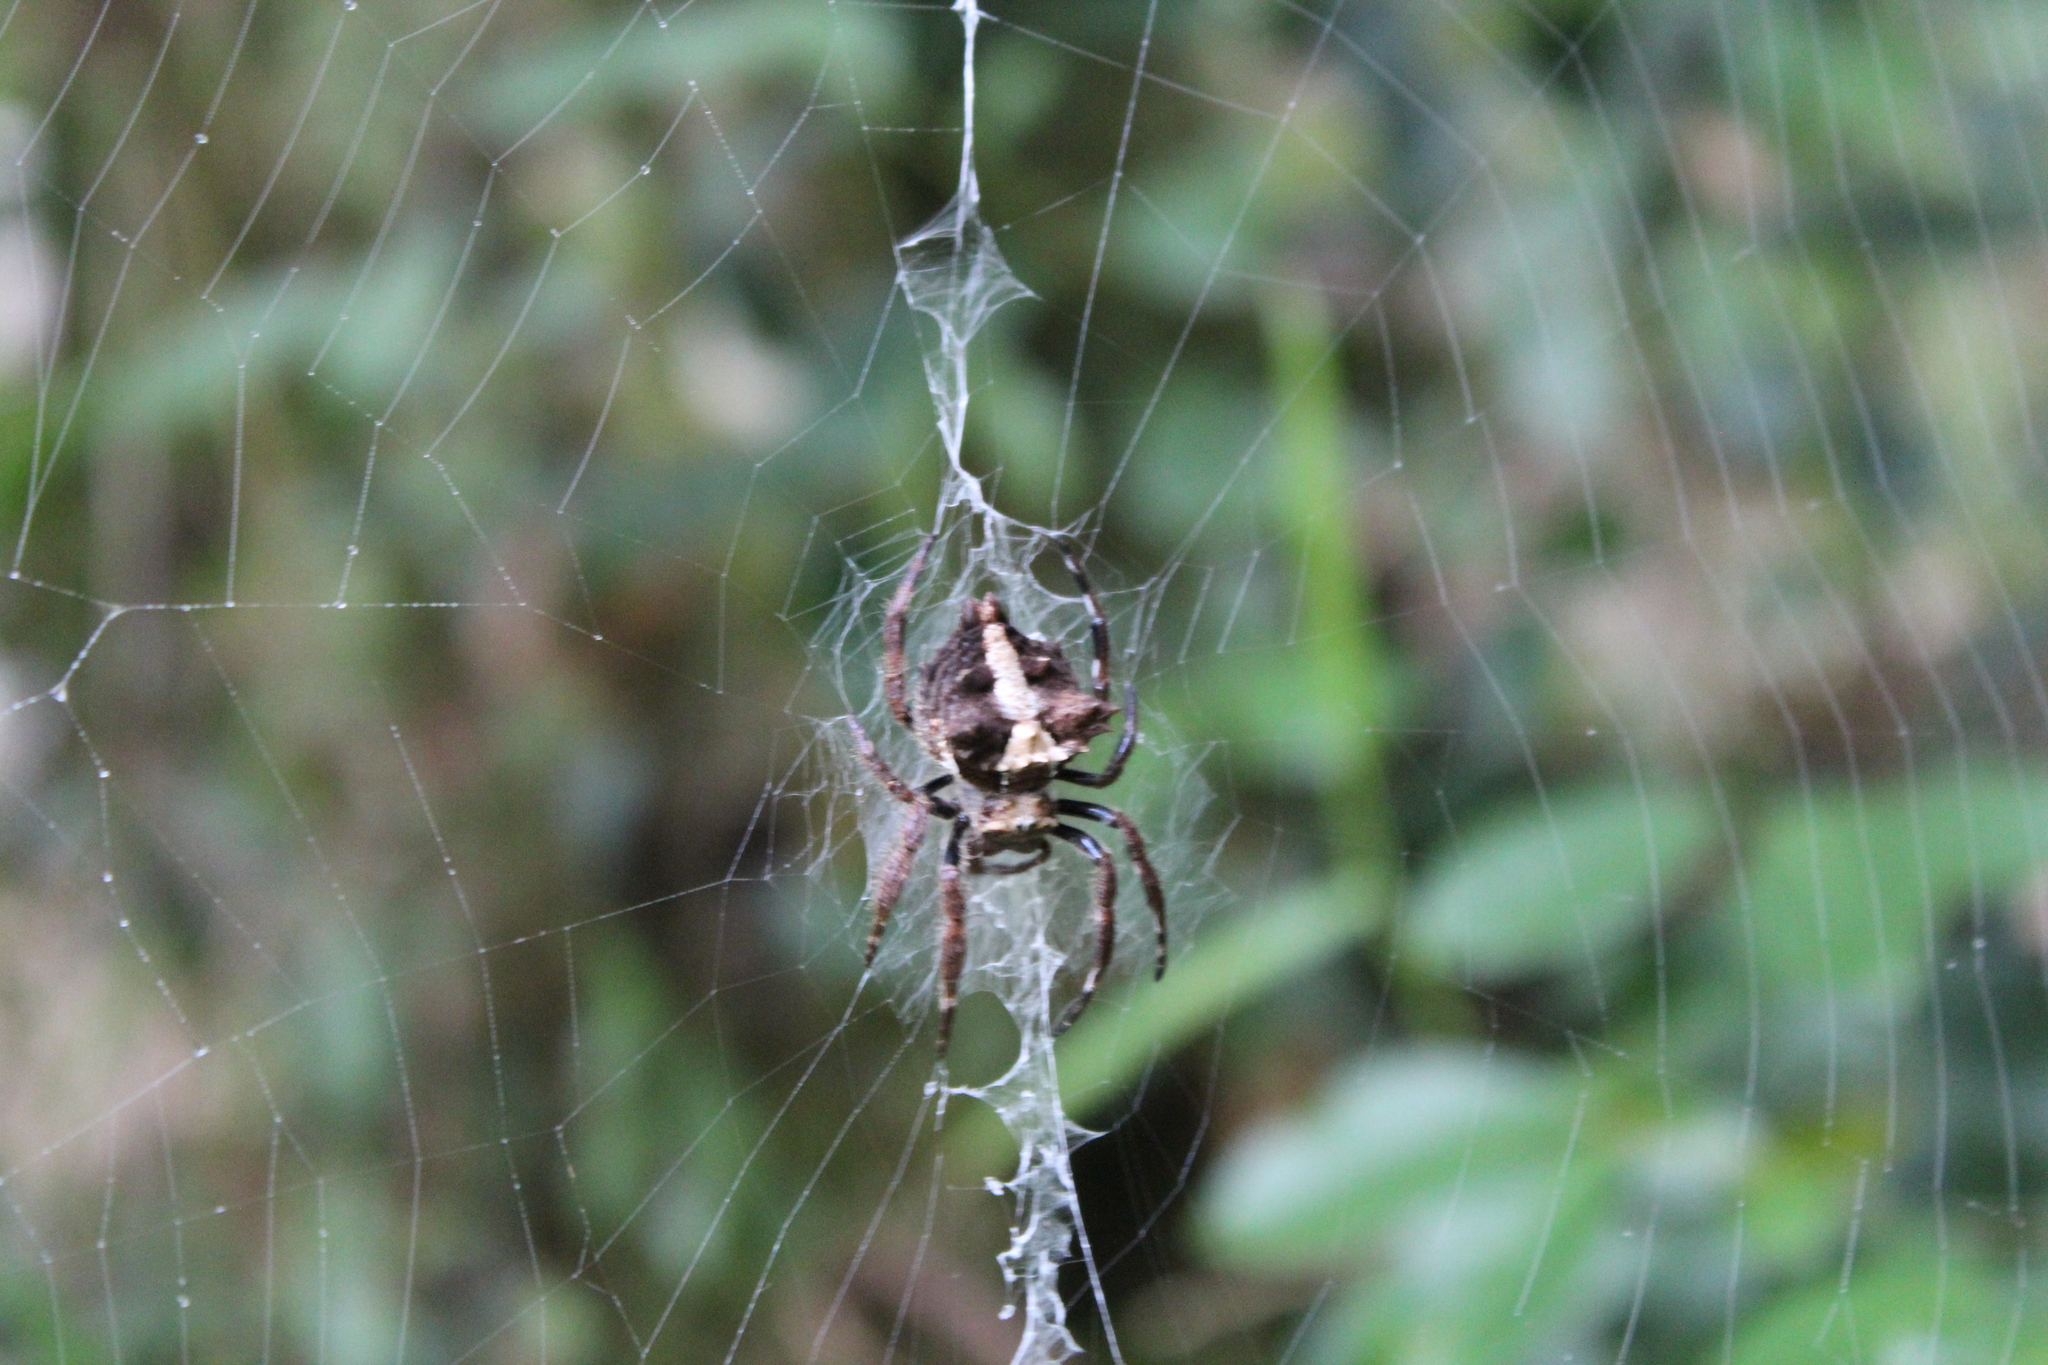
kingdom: Animalia
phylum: Arthropoda
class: Arachnida
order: Araneae
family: Araneidae
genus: Caerostris
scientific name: Caerostris extrusa
